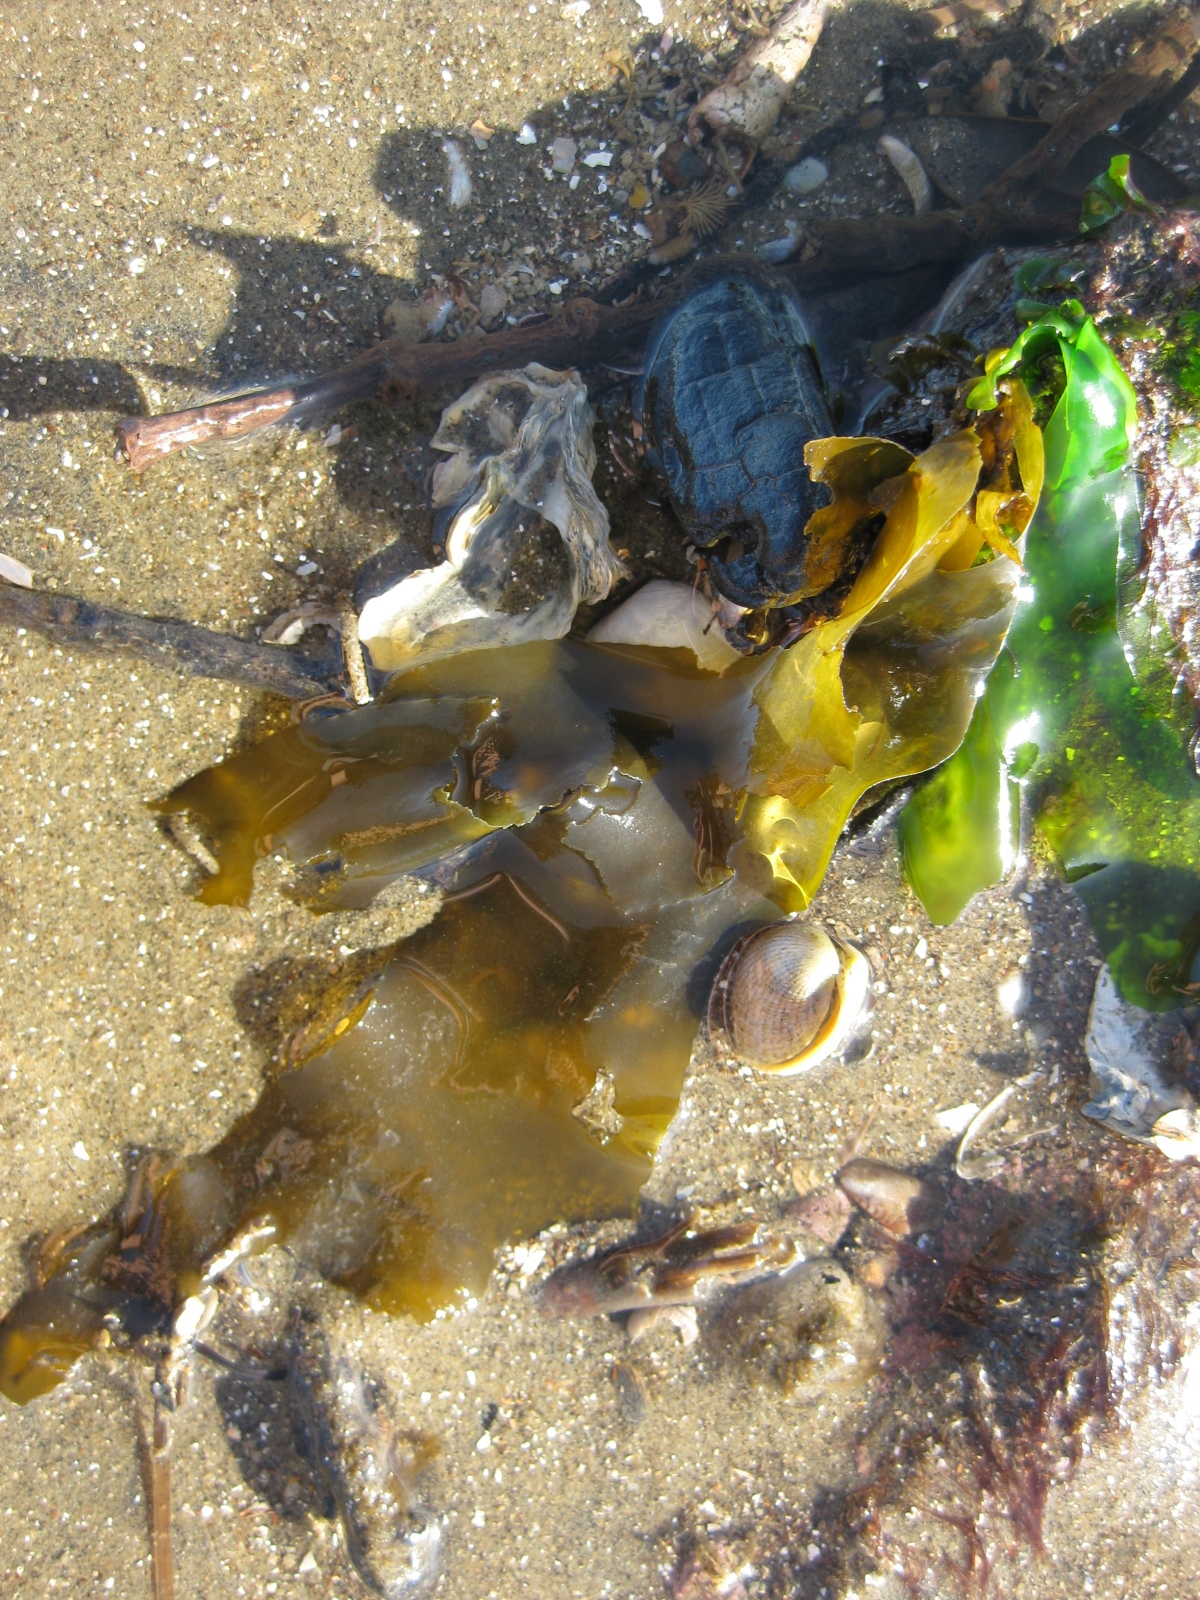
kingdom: Chromista
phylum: Ochrophyta
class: Phaeophyceae
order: Scytosiphonales
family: Scytosiphonaceae
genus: Petalonia
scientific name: Petalonia binghamiae
